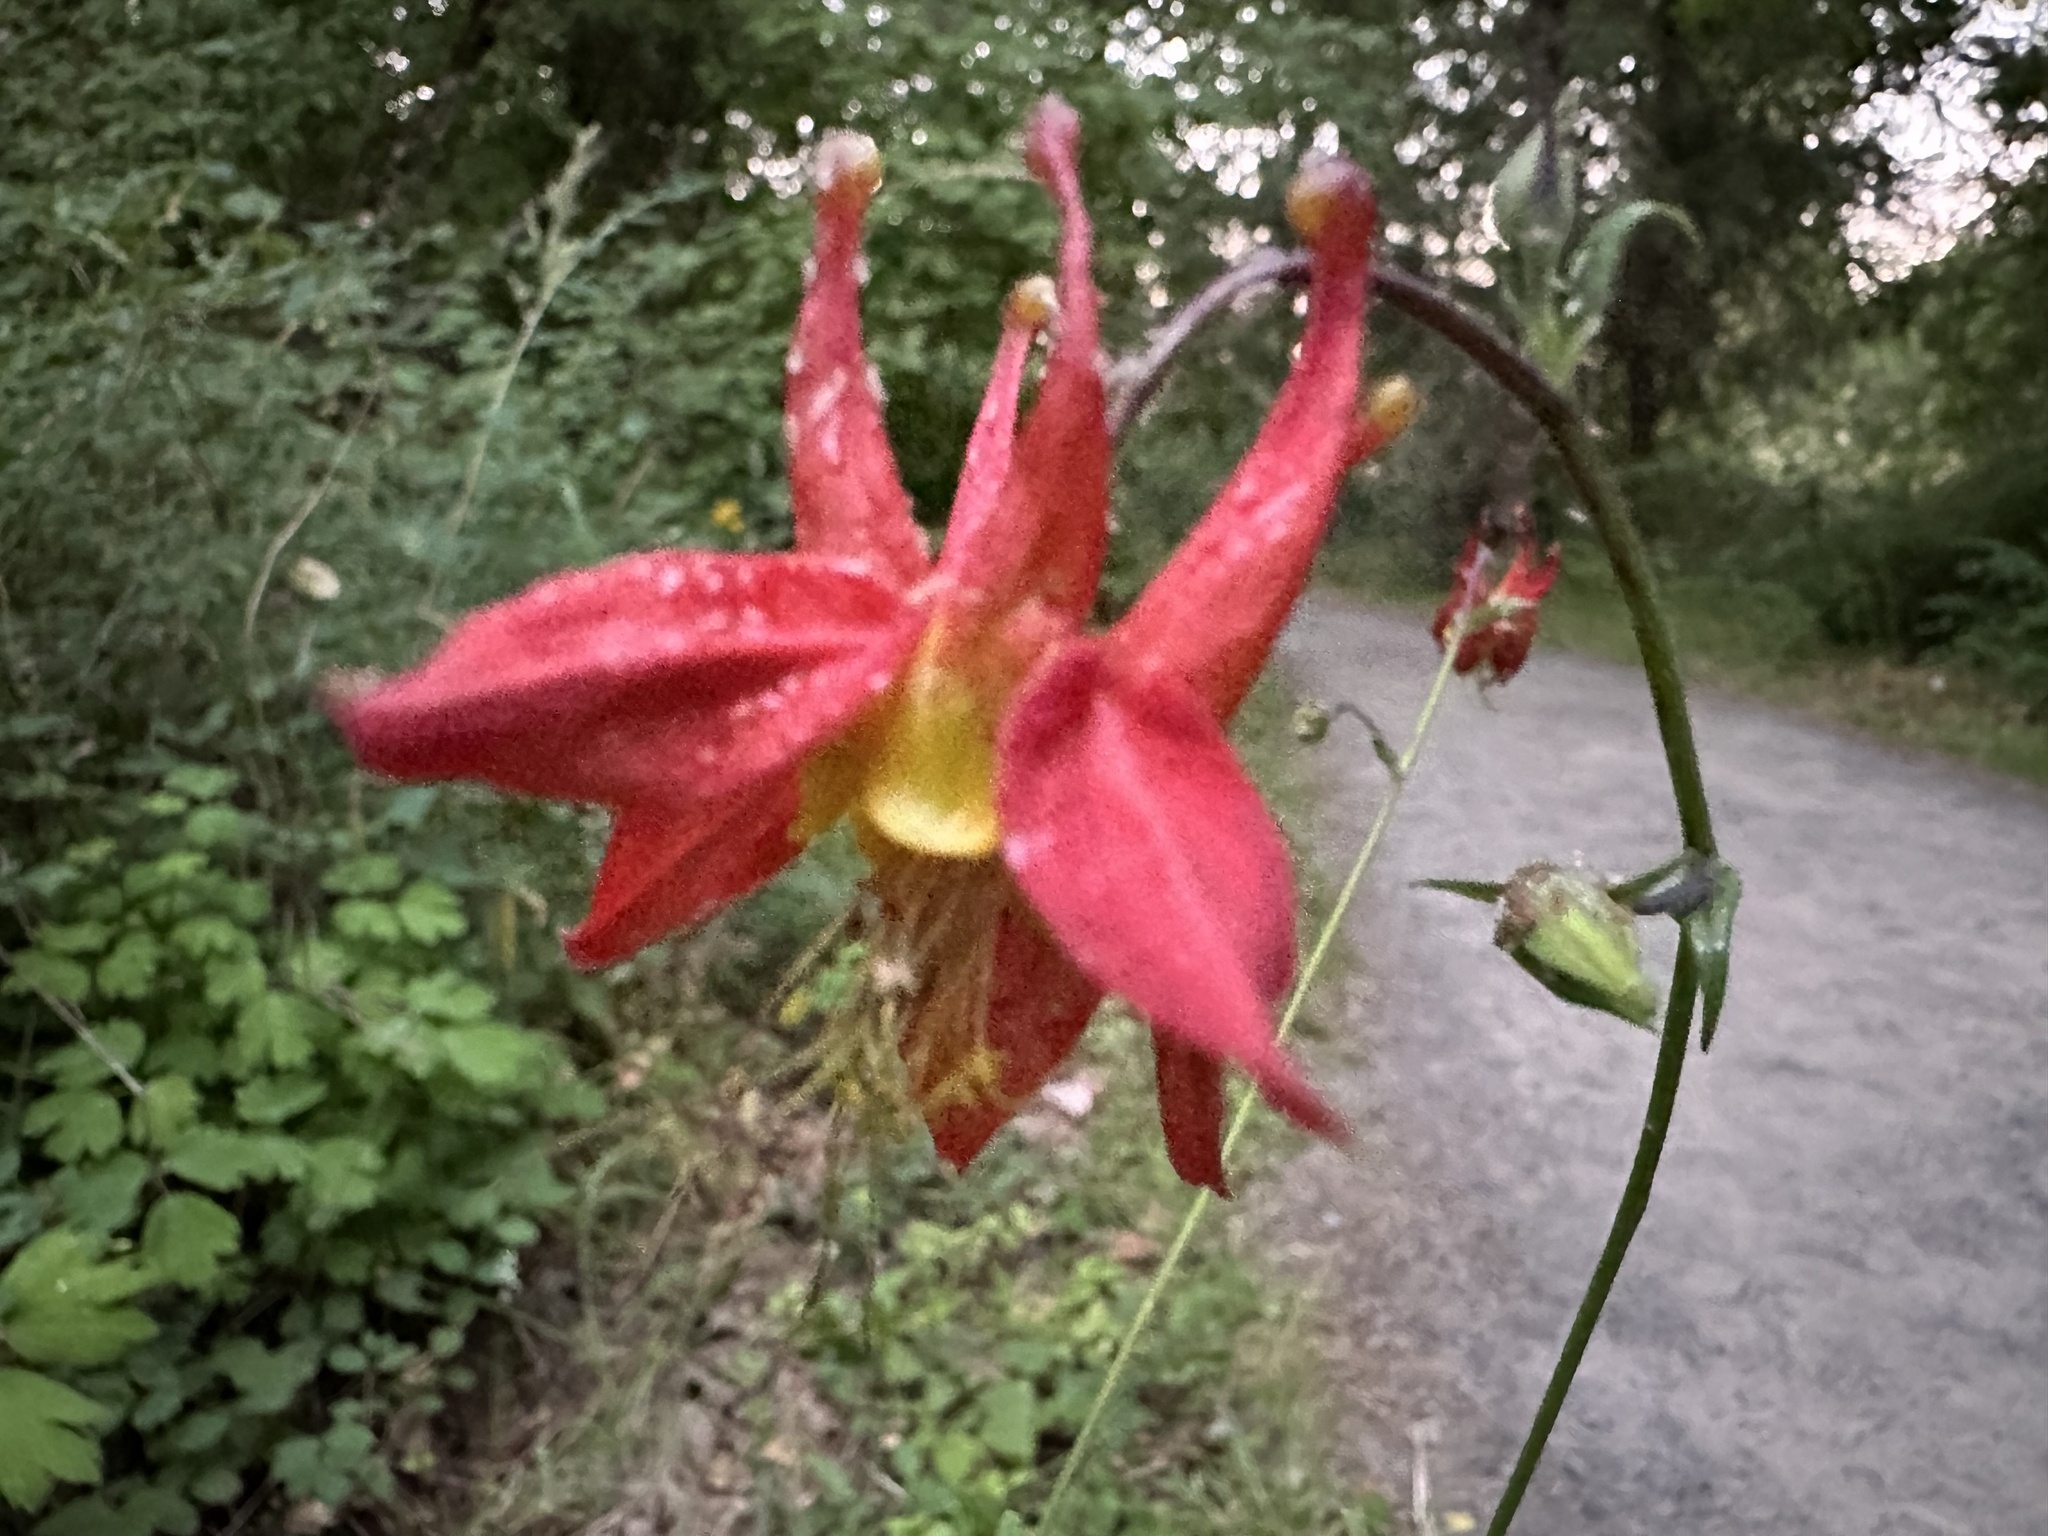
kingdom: Plantae
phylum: Tracheophyta
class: Magnoliopsida
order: Ranunculales
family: Ranunculaceae
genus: Aquilegia
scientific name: Aquilegia formosa
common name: Sitka columbine
